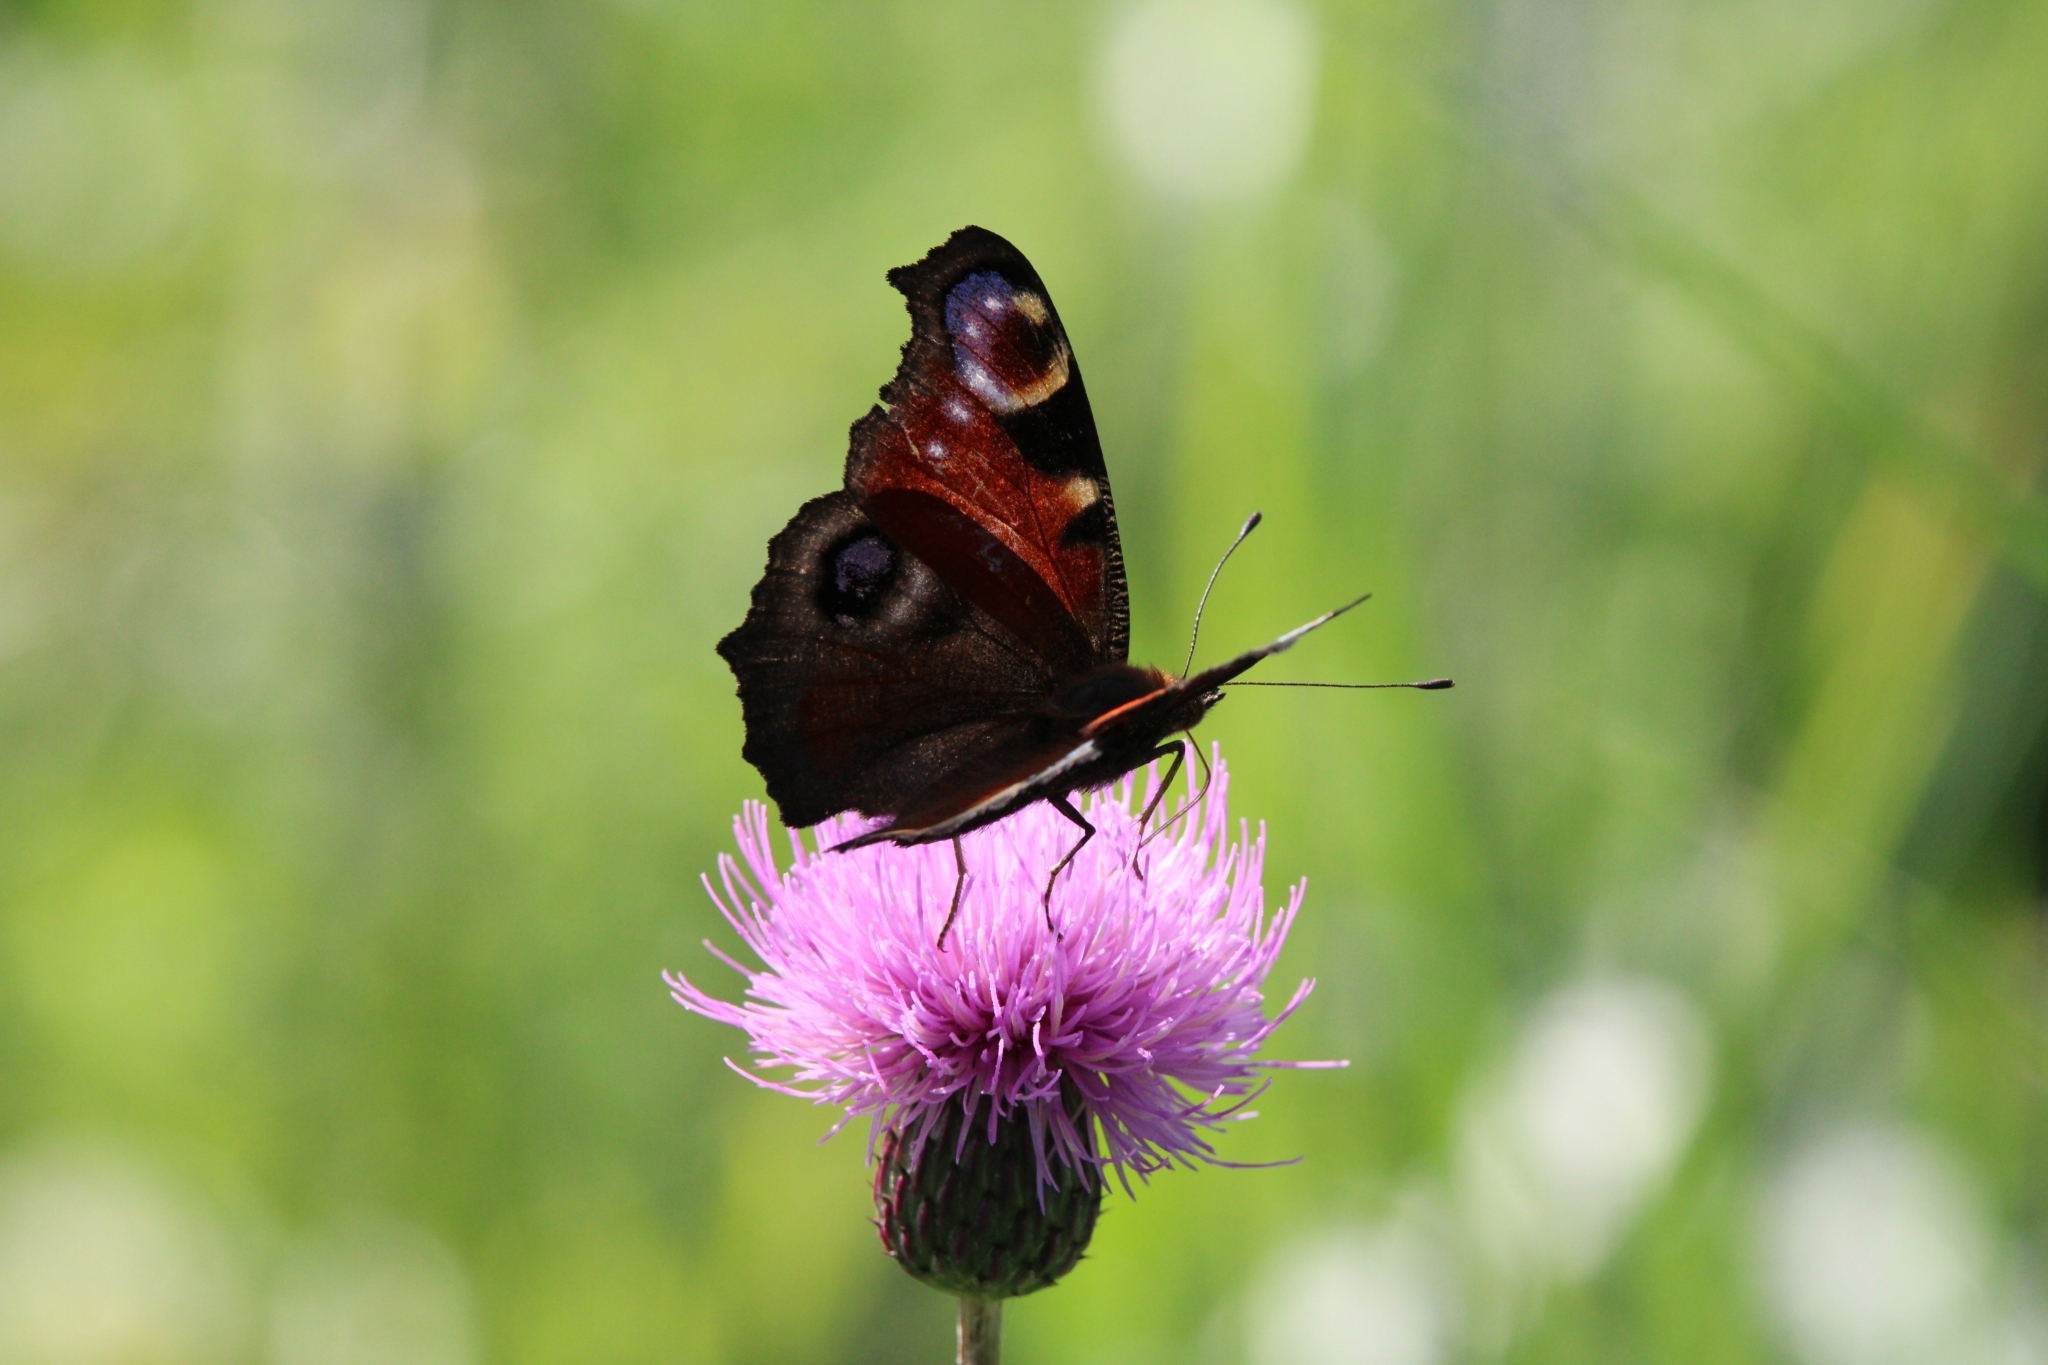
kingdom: Animalia
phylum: Arthropoda
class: Insecta
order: Lepidoptera
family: Nymphalidae
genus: Aglais
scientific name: Aglais io
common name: Peacock
